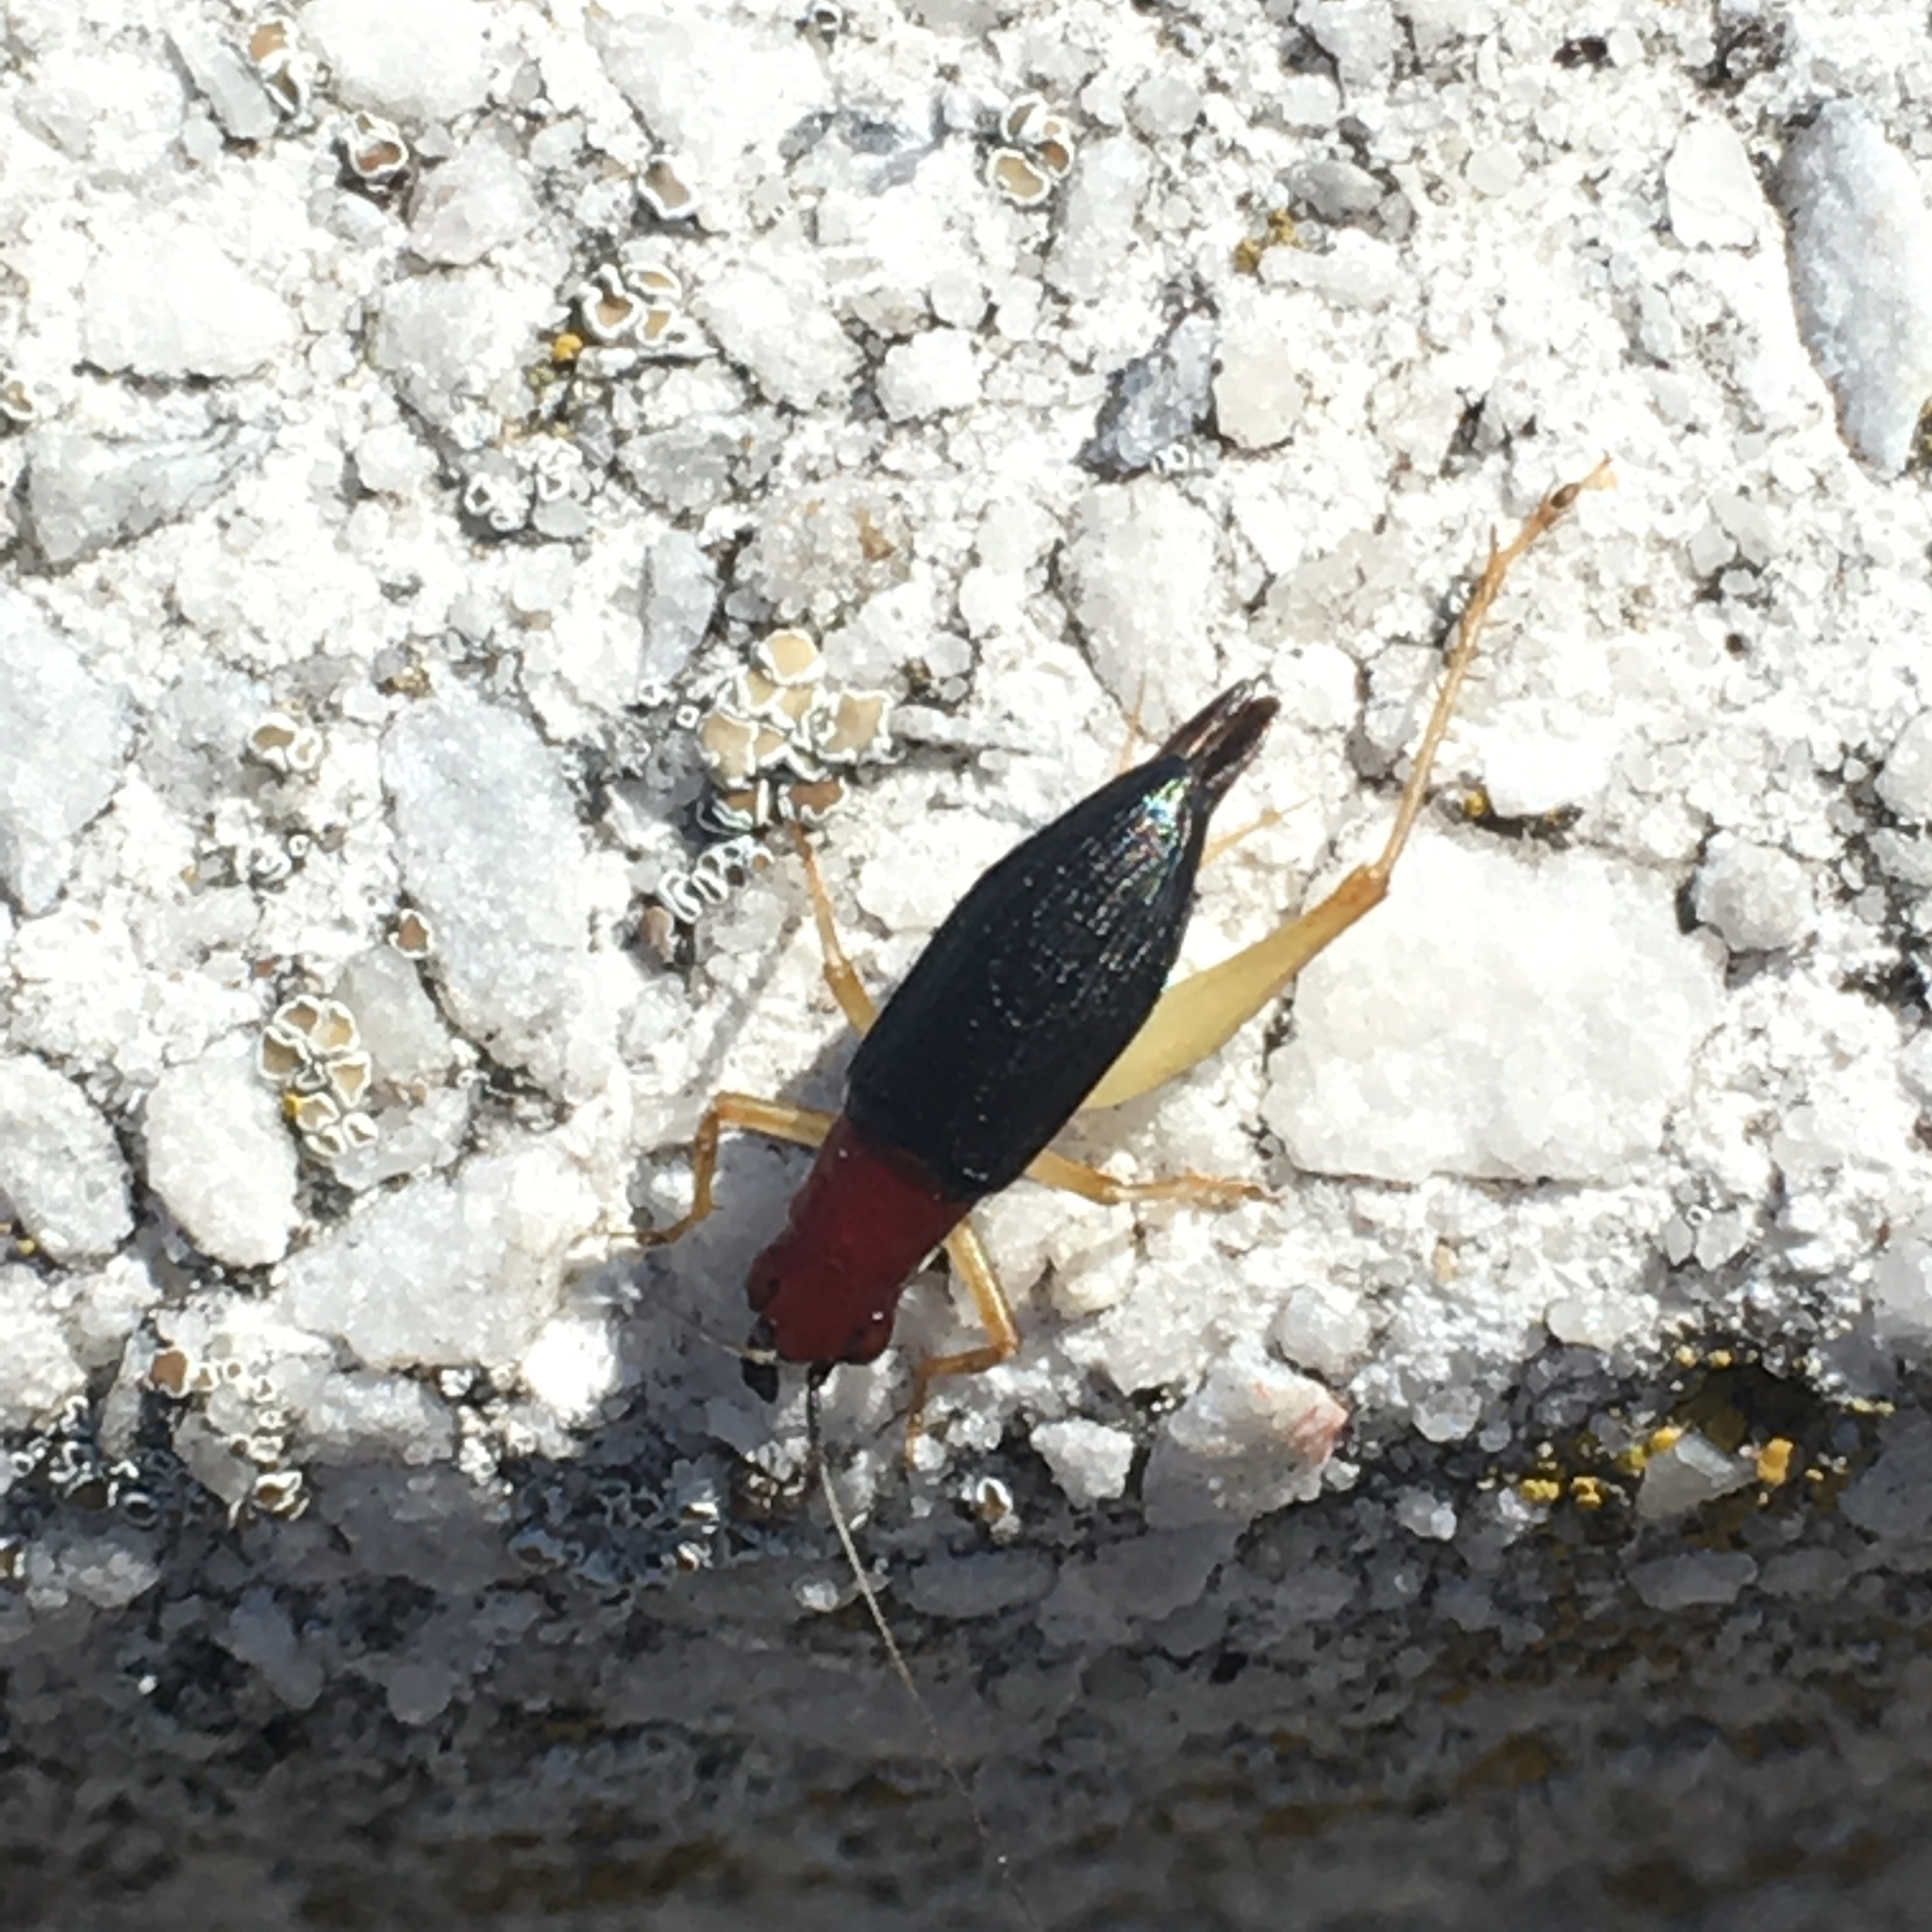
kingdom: Animalia
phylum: Arthropoda
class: Insecta
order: Orthoptera
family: Trigonidiidae
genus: Phyllopalpus
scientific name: Phyllopalpus pulchellus
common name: Handsome trig
